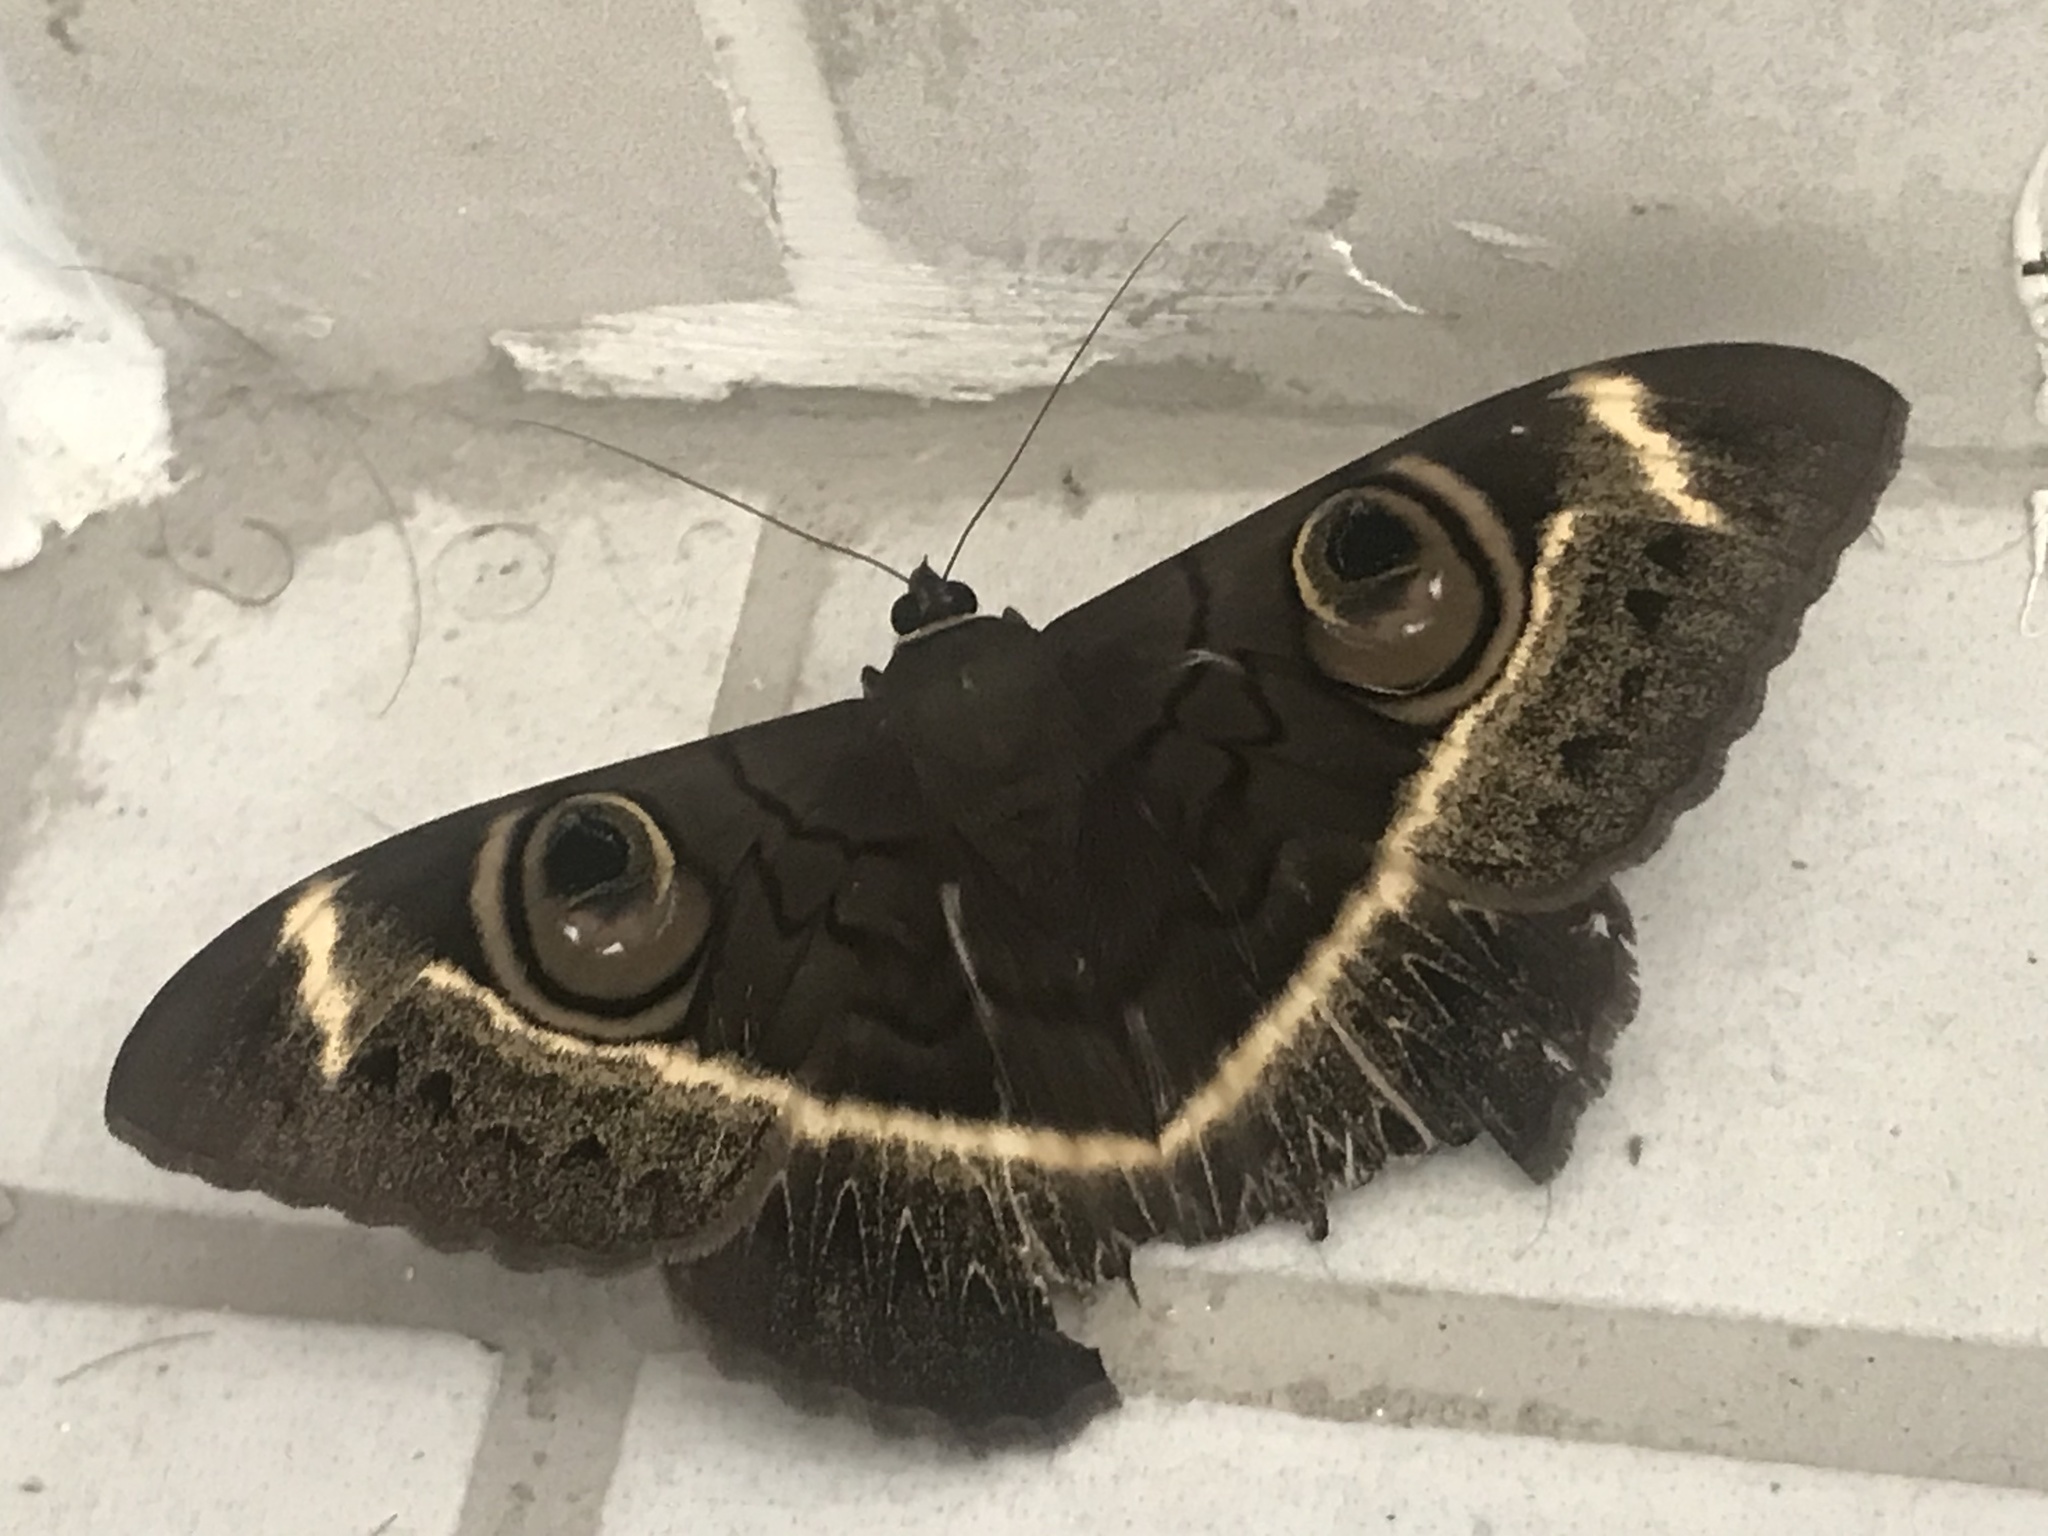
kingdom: Animalia
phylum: Arthropoda
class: Insecta
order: Lepidoptera
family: Erebidae
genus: Cyligramma
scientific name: Cyligramma latona
